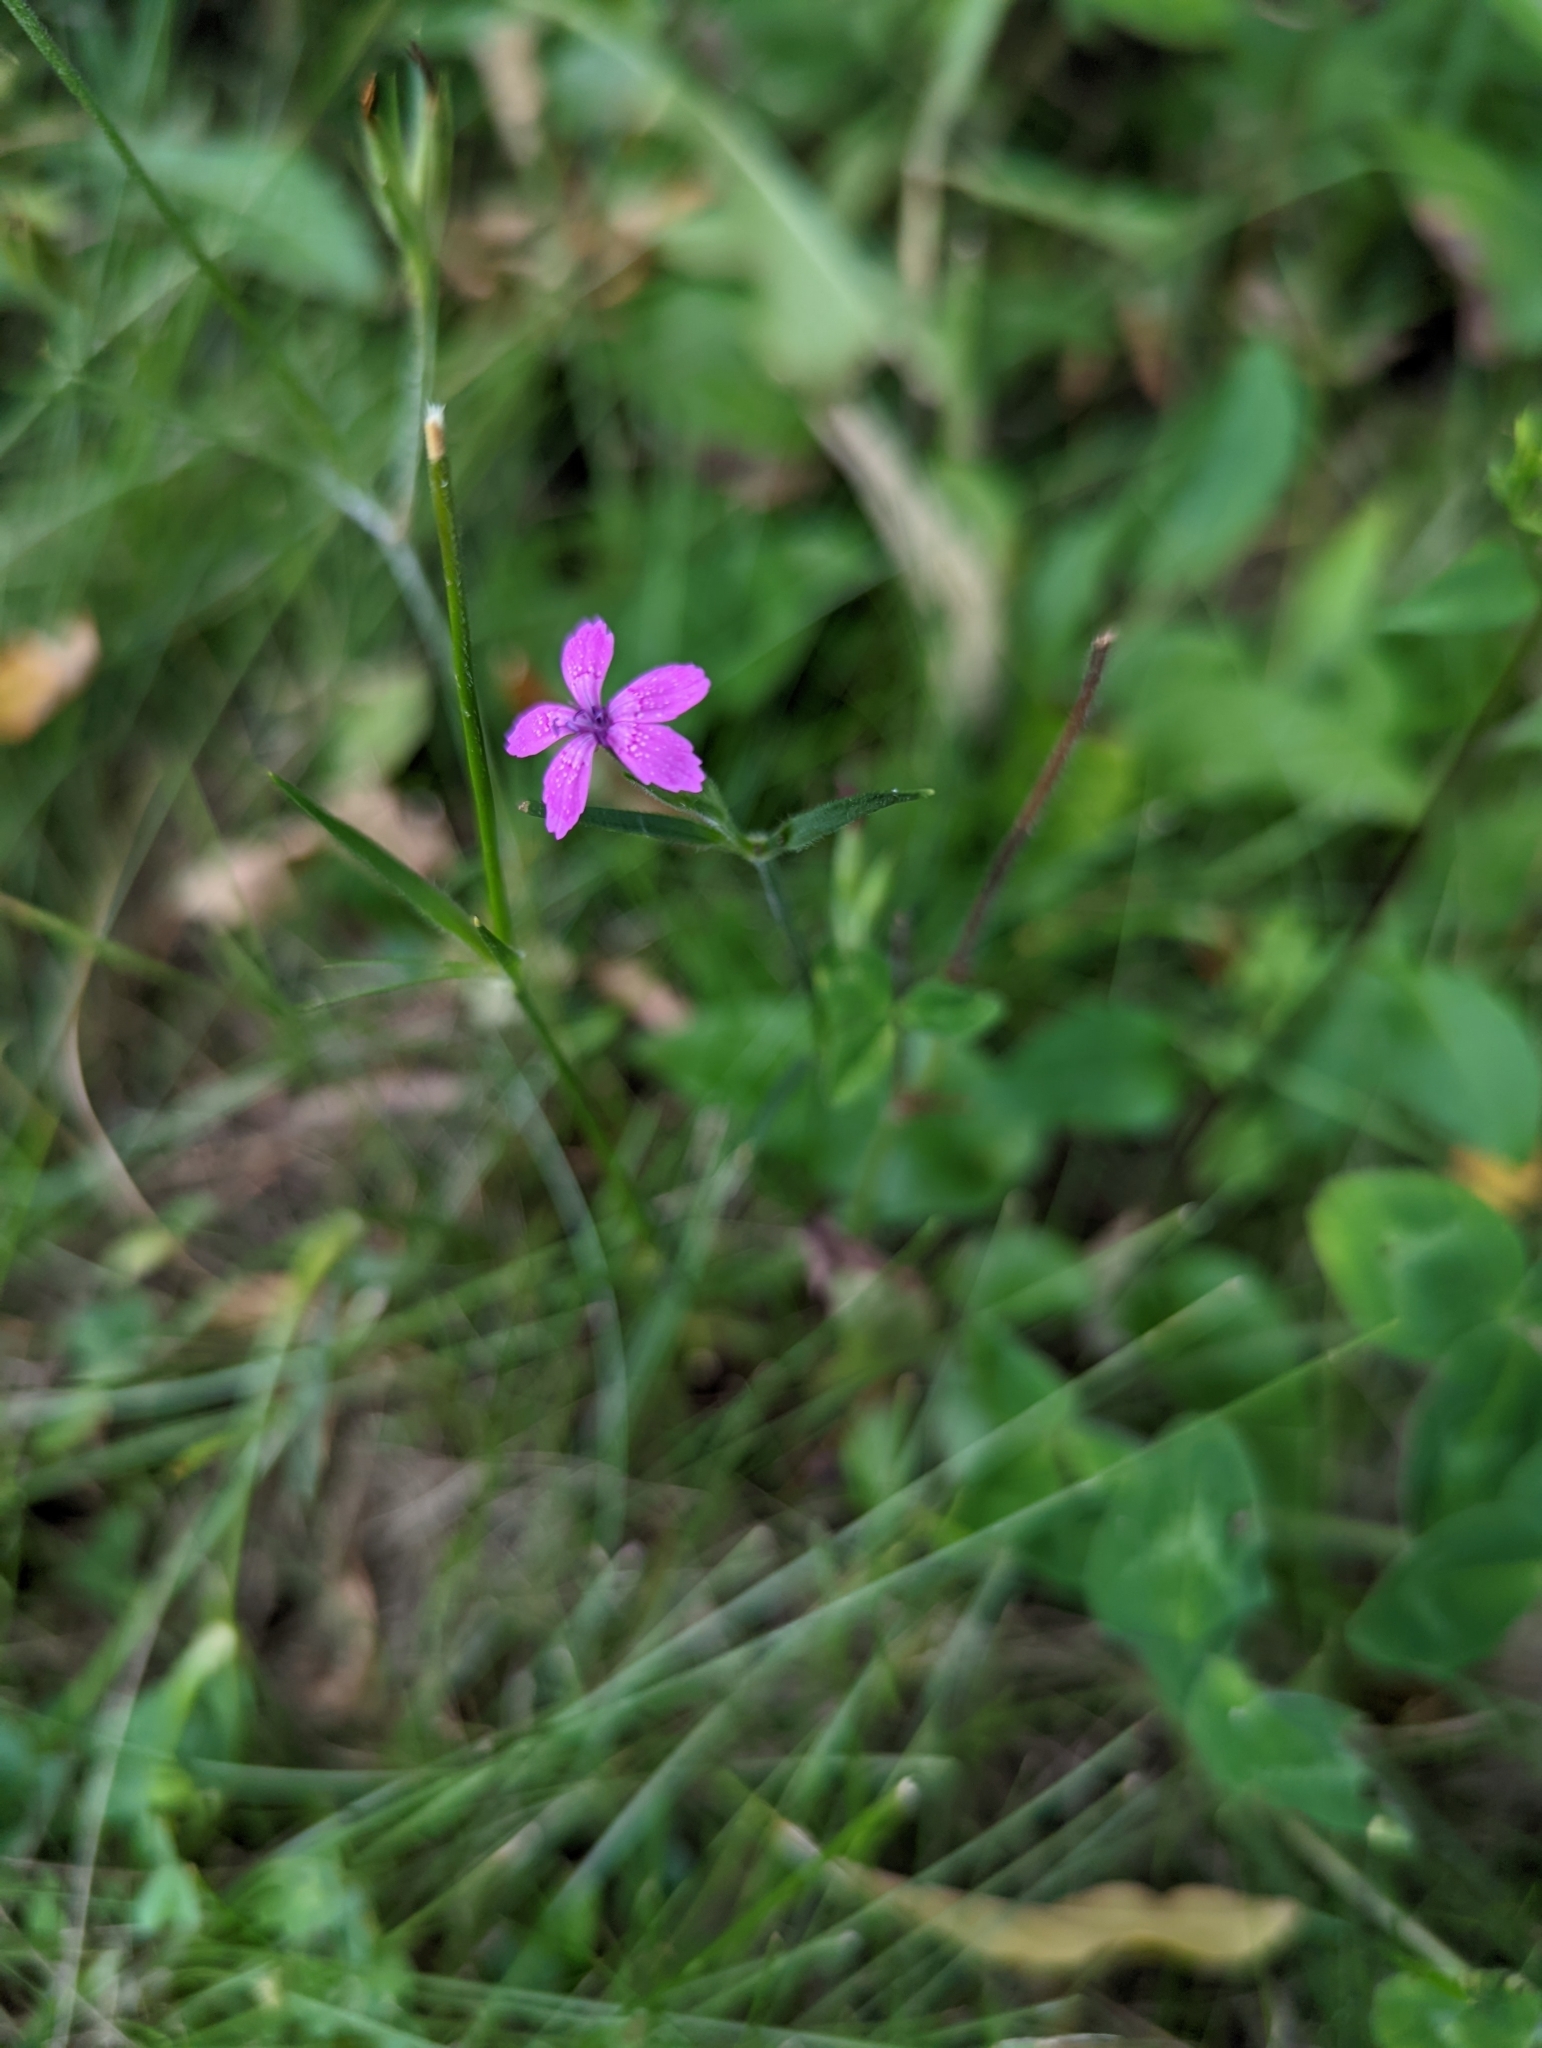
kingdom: Plantae
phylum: Tracheophyta
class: Magnoliopsida
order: Caryophyllales
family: Caryophyllaceae
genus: Dianthus
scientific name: Dianthus armeria
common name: Deptford pink
